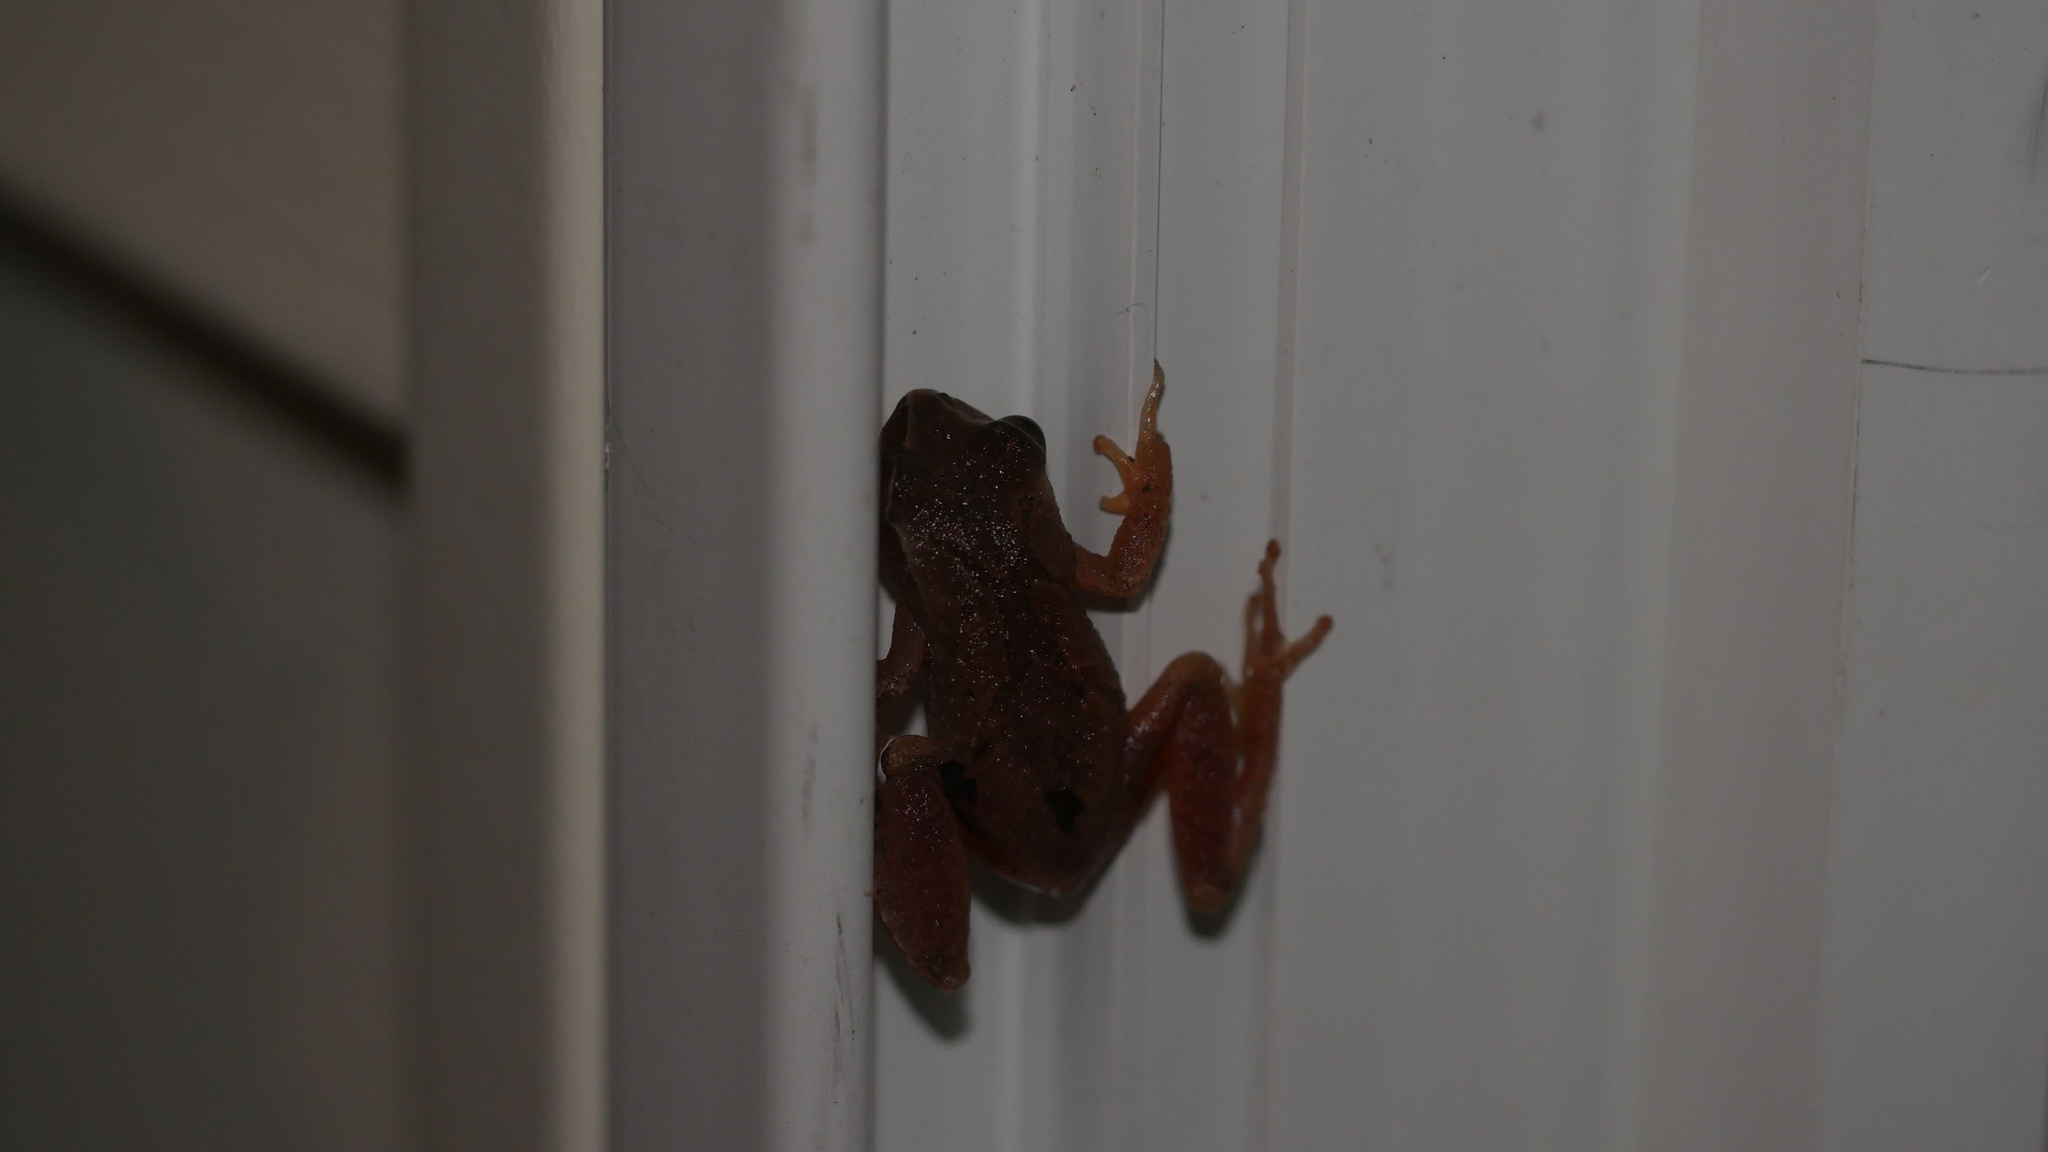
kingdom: Animalia
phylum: Chordata
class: Amphibia
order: Anura
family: Hylidae
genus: Pseudacris
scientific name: Pseudacris crucifer
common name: Spring peeper
